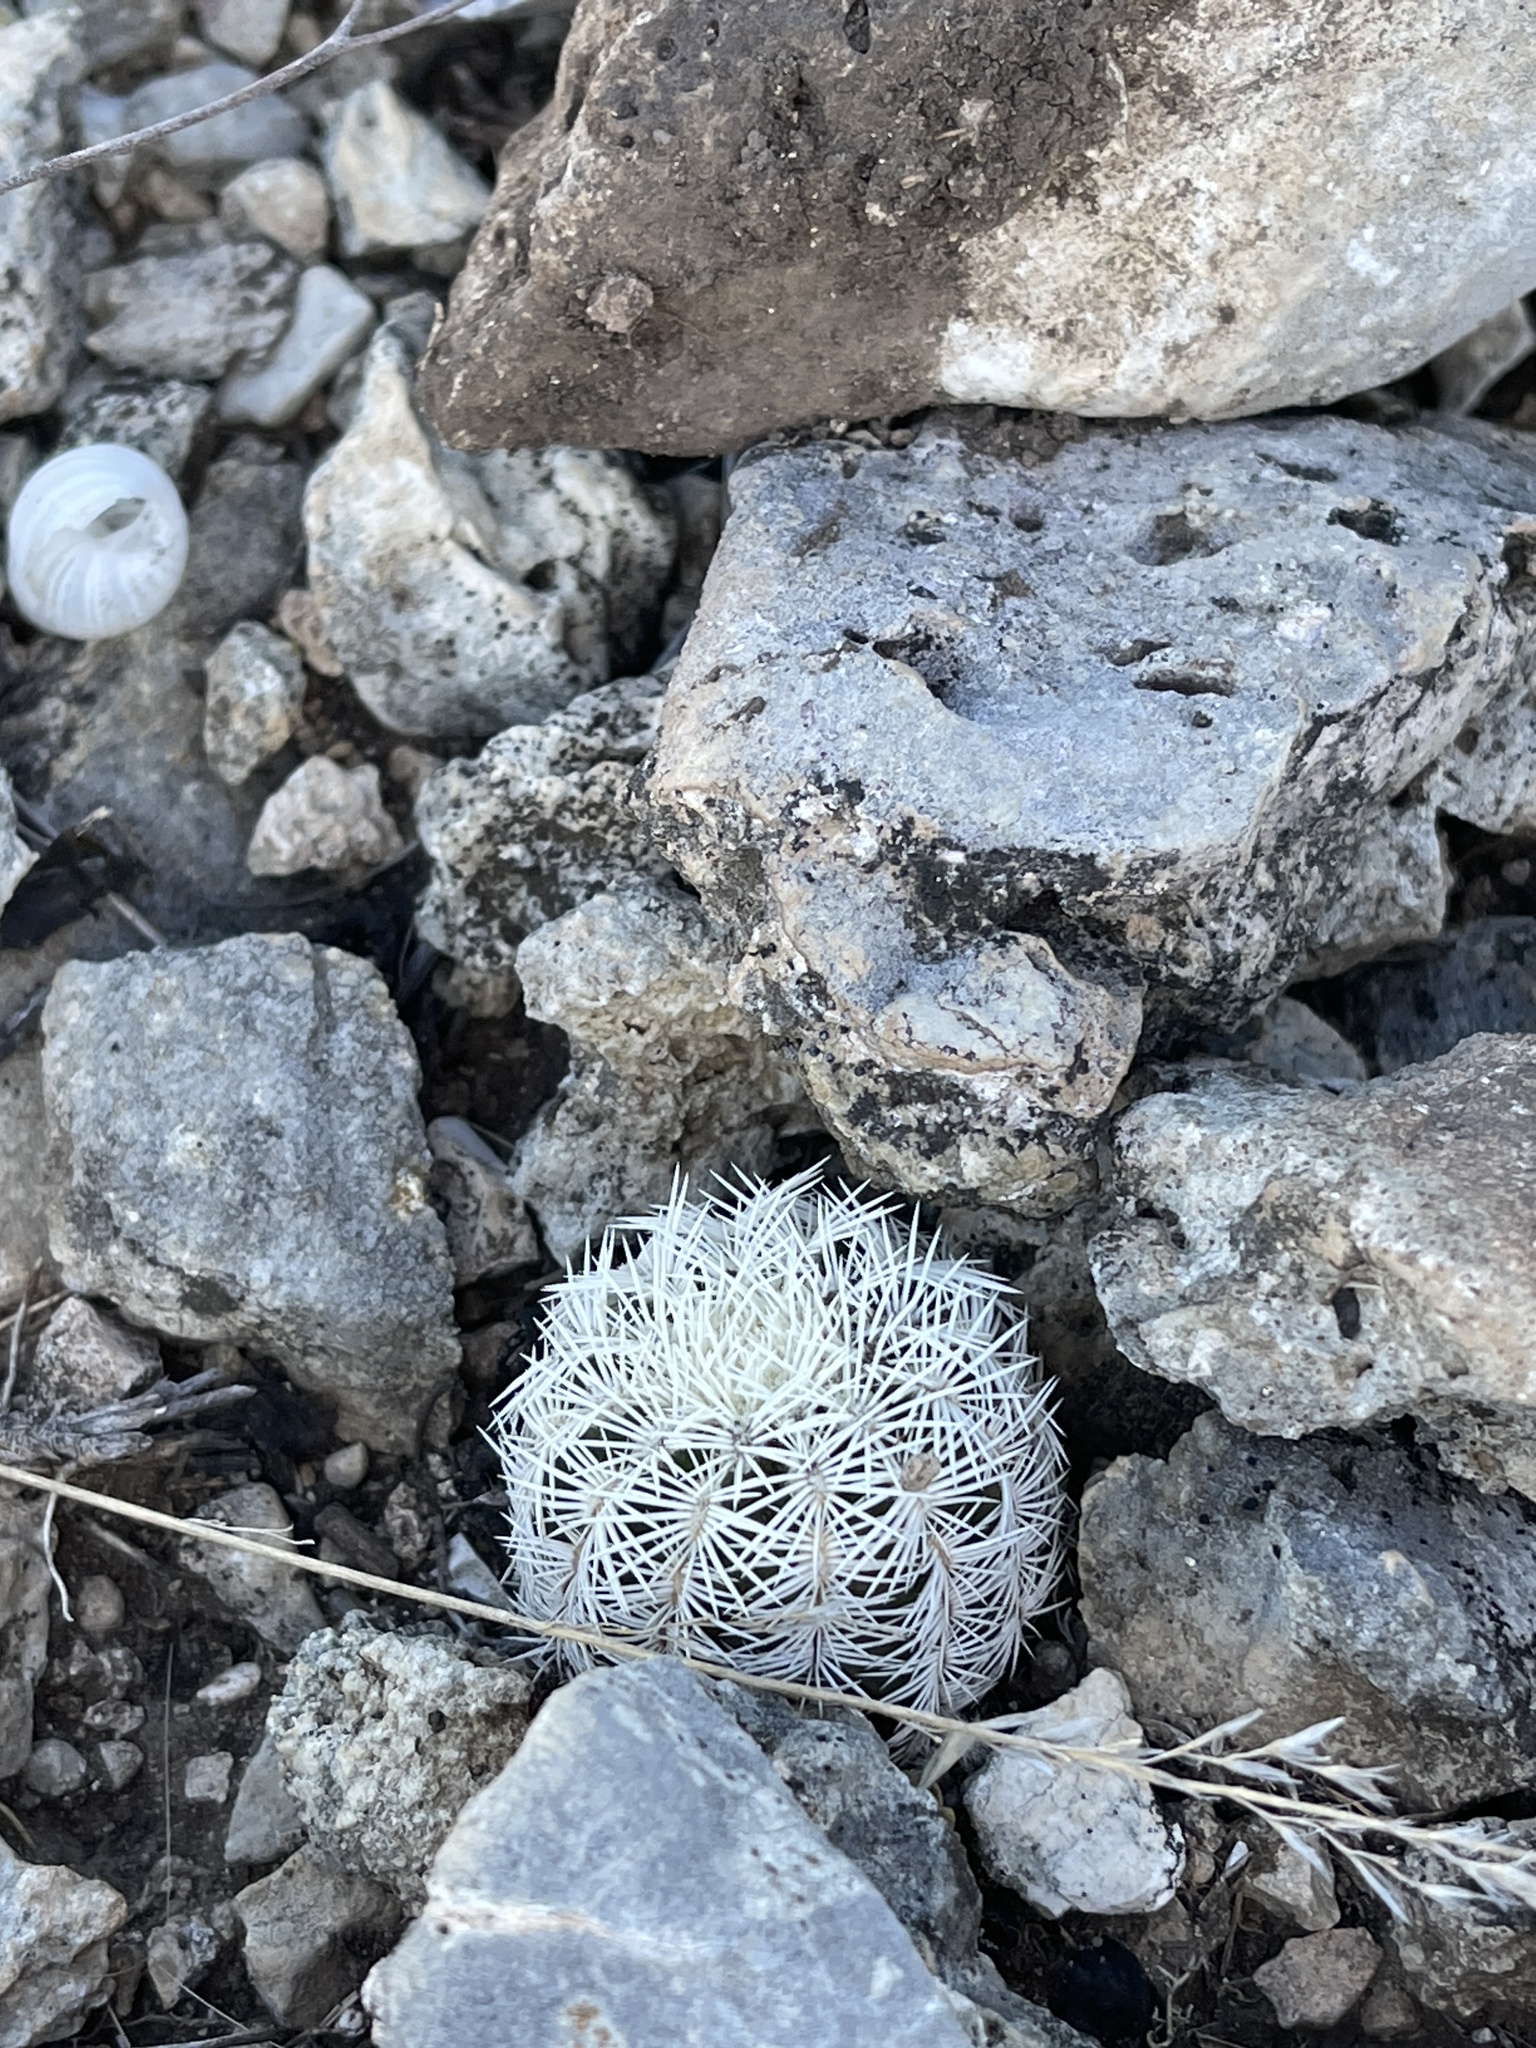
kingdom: Plantae
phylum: Tracheophyta
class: Magnoliopsida
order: Caryophyllales
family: Cactaceae
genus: Echinocereus
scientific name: Echinocereus reichenbachii
